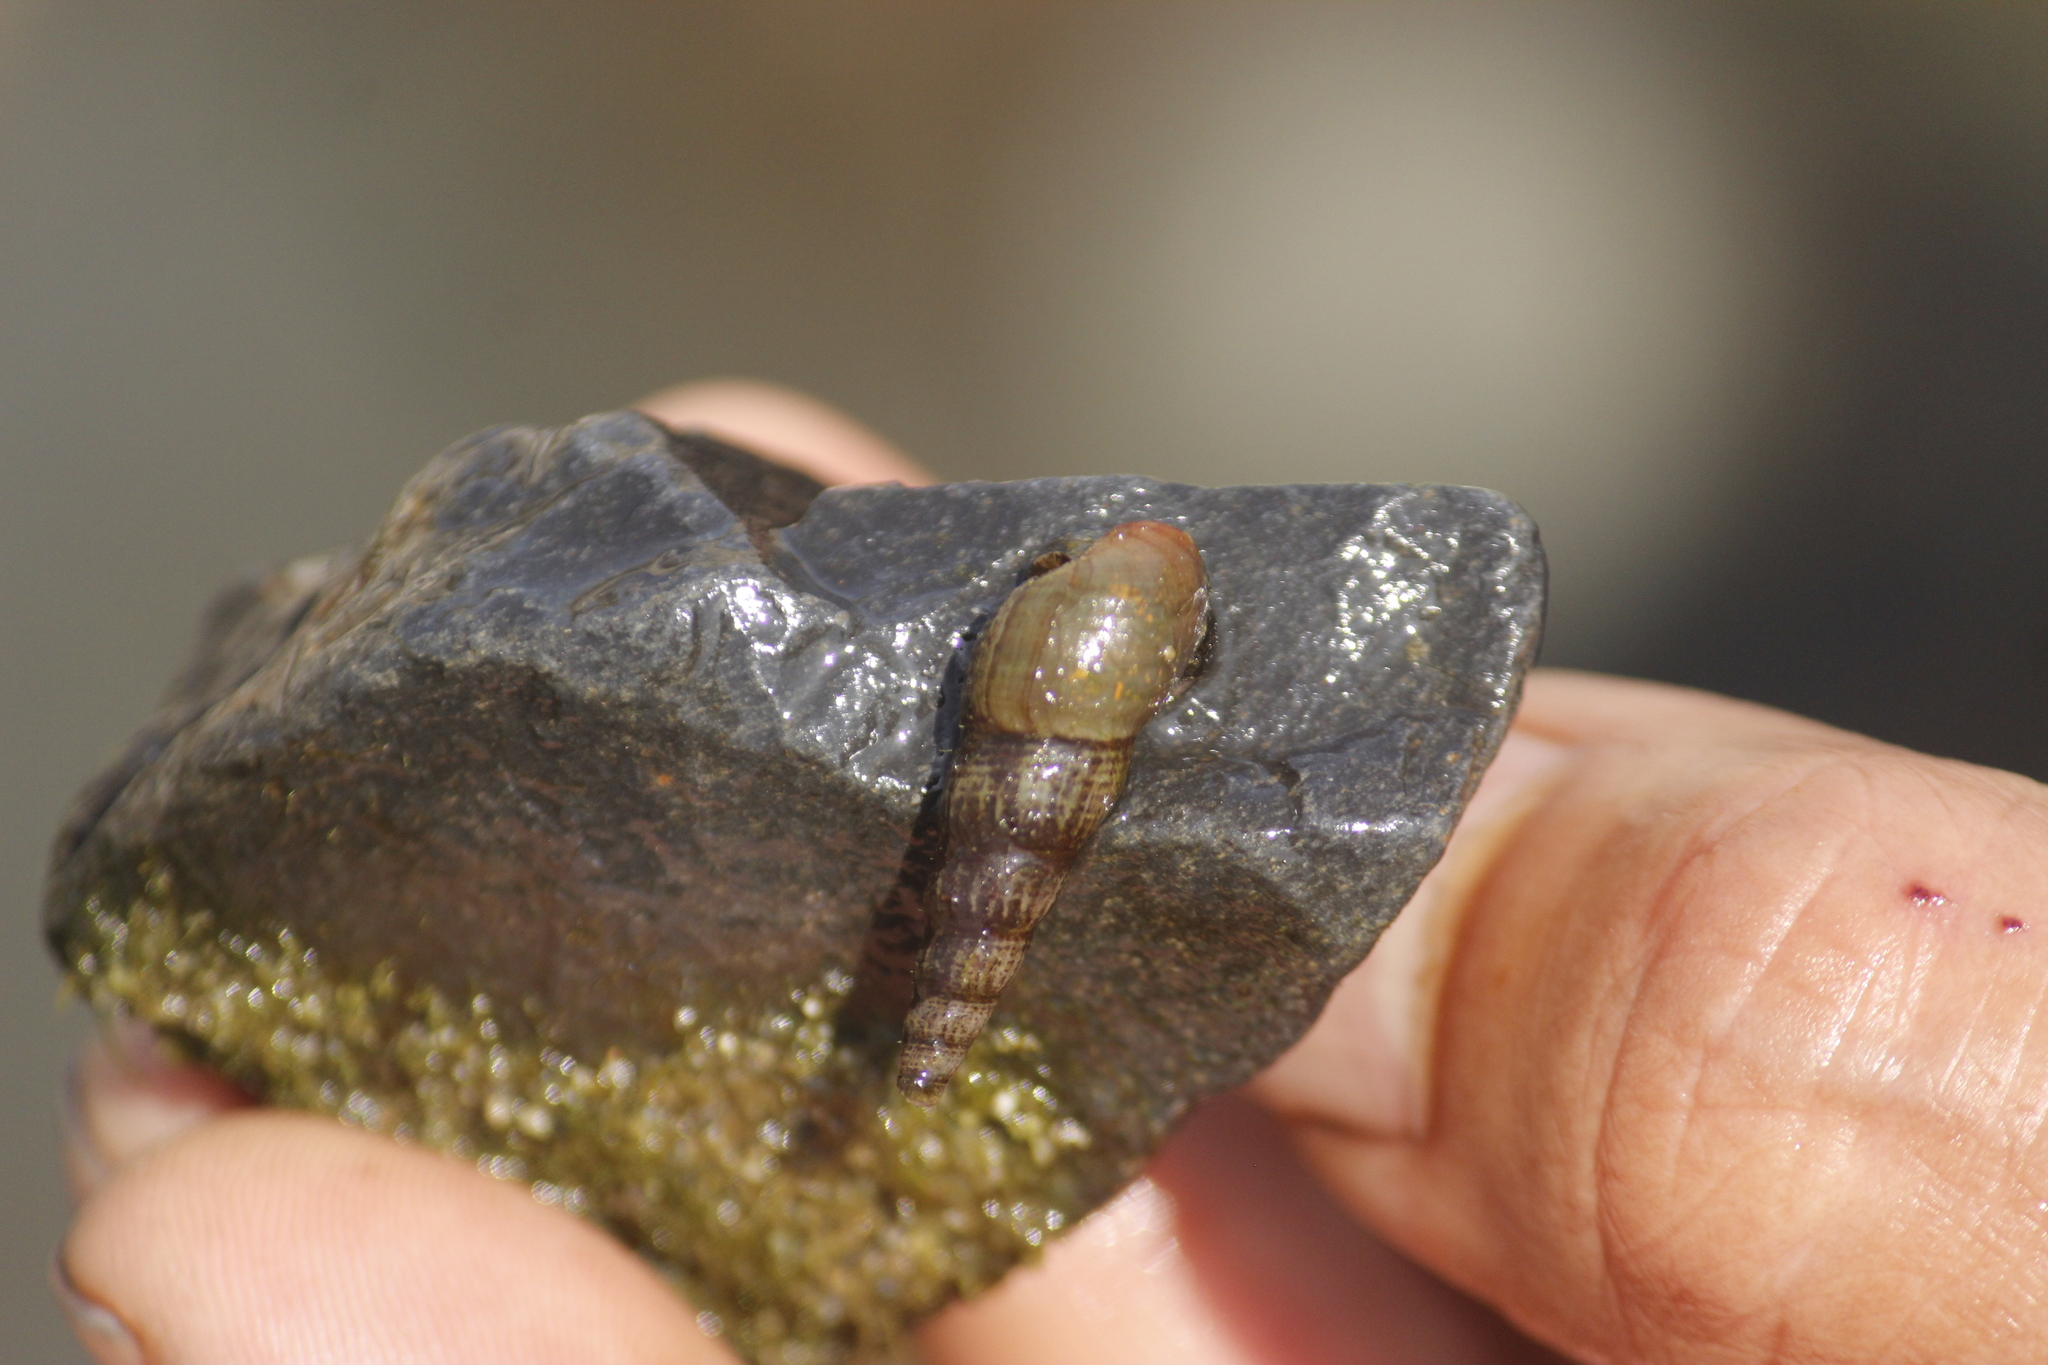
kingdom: Animalia
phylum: Mollusca
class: Gastropoda
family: Thiaridae
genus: Melanoides
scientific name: Melanoides tuberculata
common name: Red-rim melania
